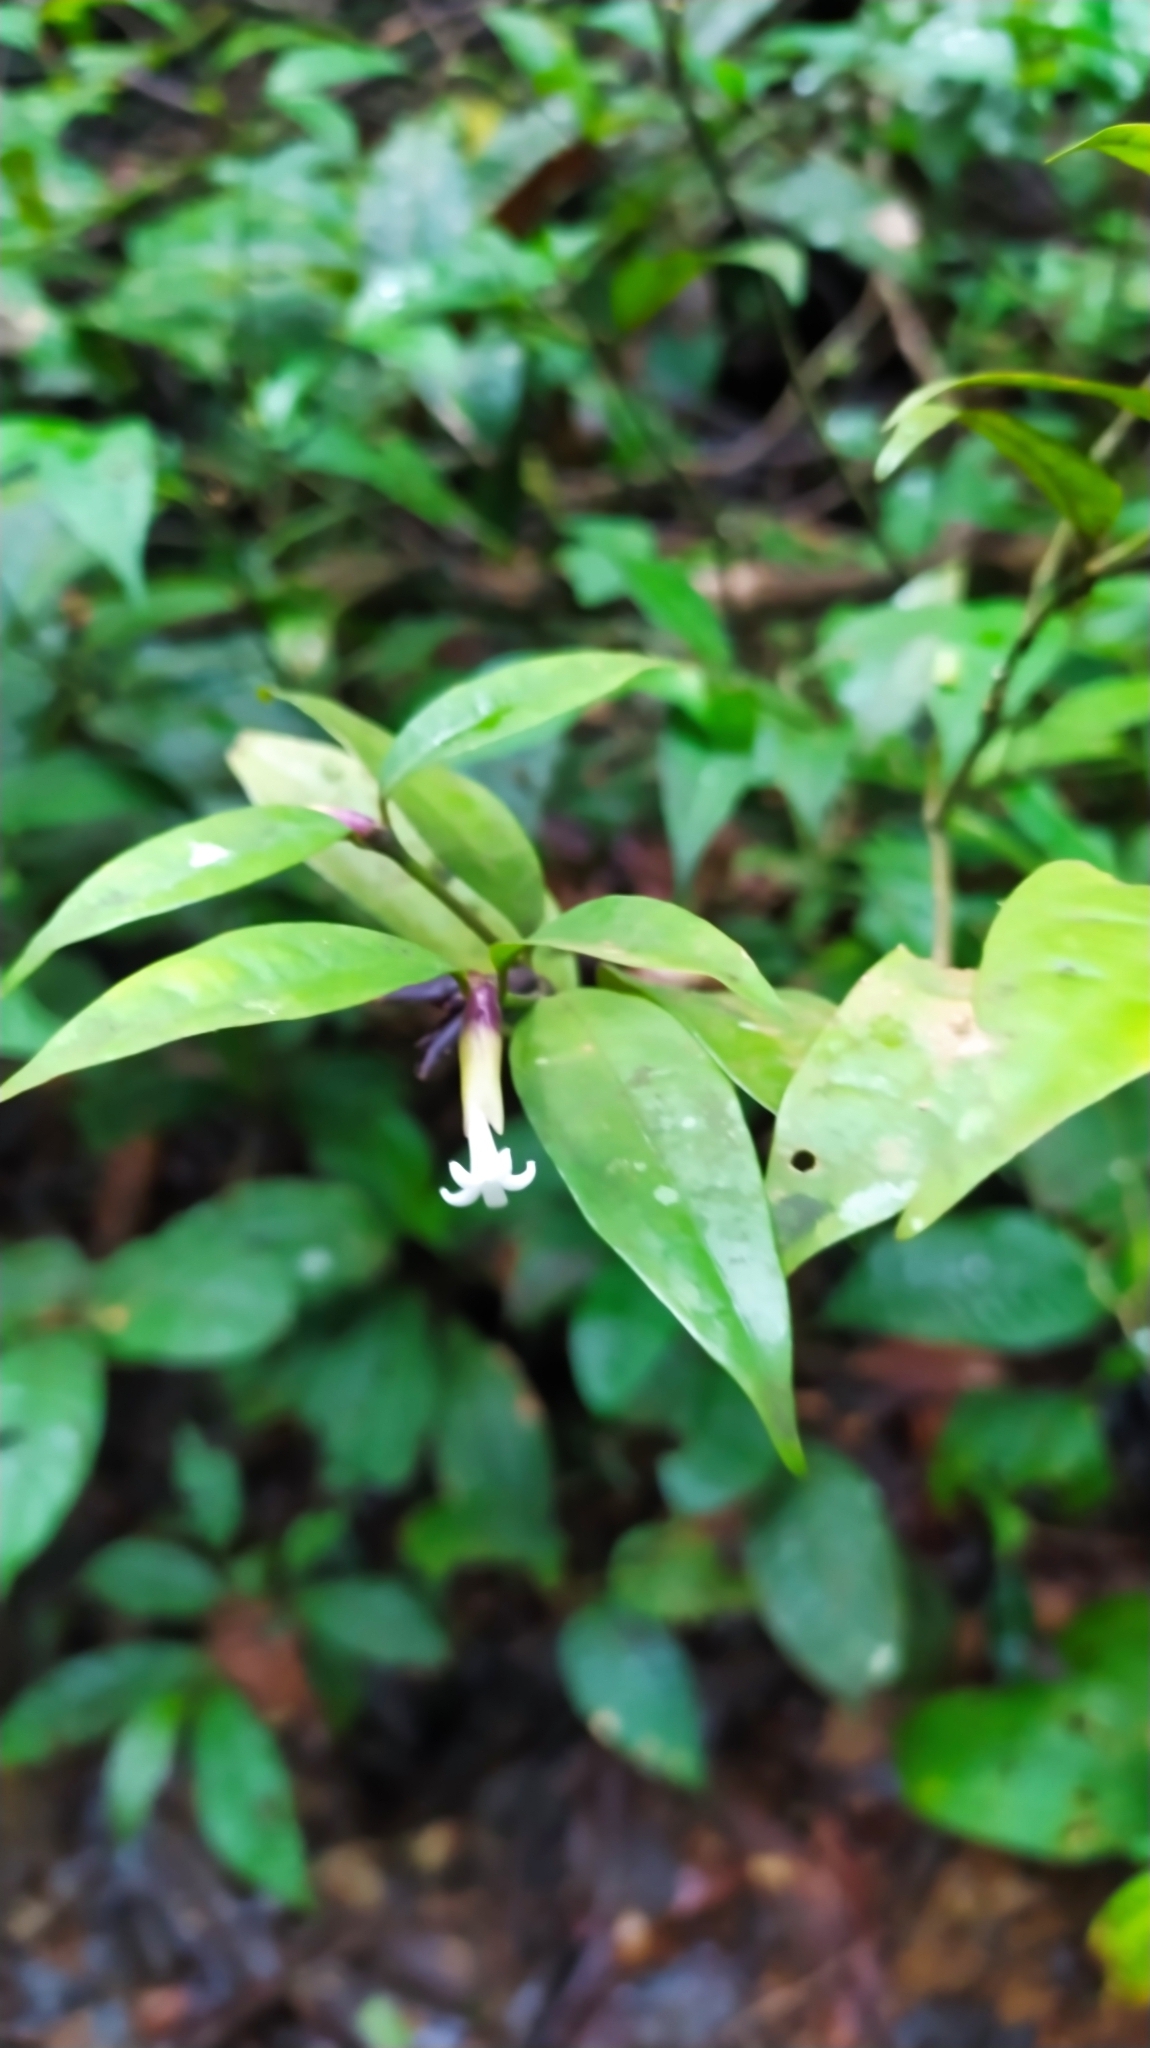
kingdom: Plantae
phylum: Tracheophyta
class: Magnoliopsida
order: Gentianales
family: Rubiaceae
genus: Palicourea
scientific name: Palicourea oblonga
